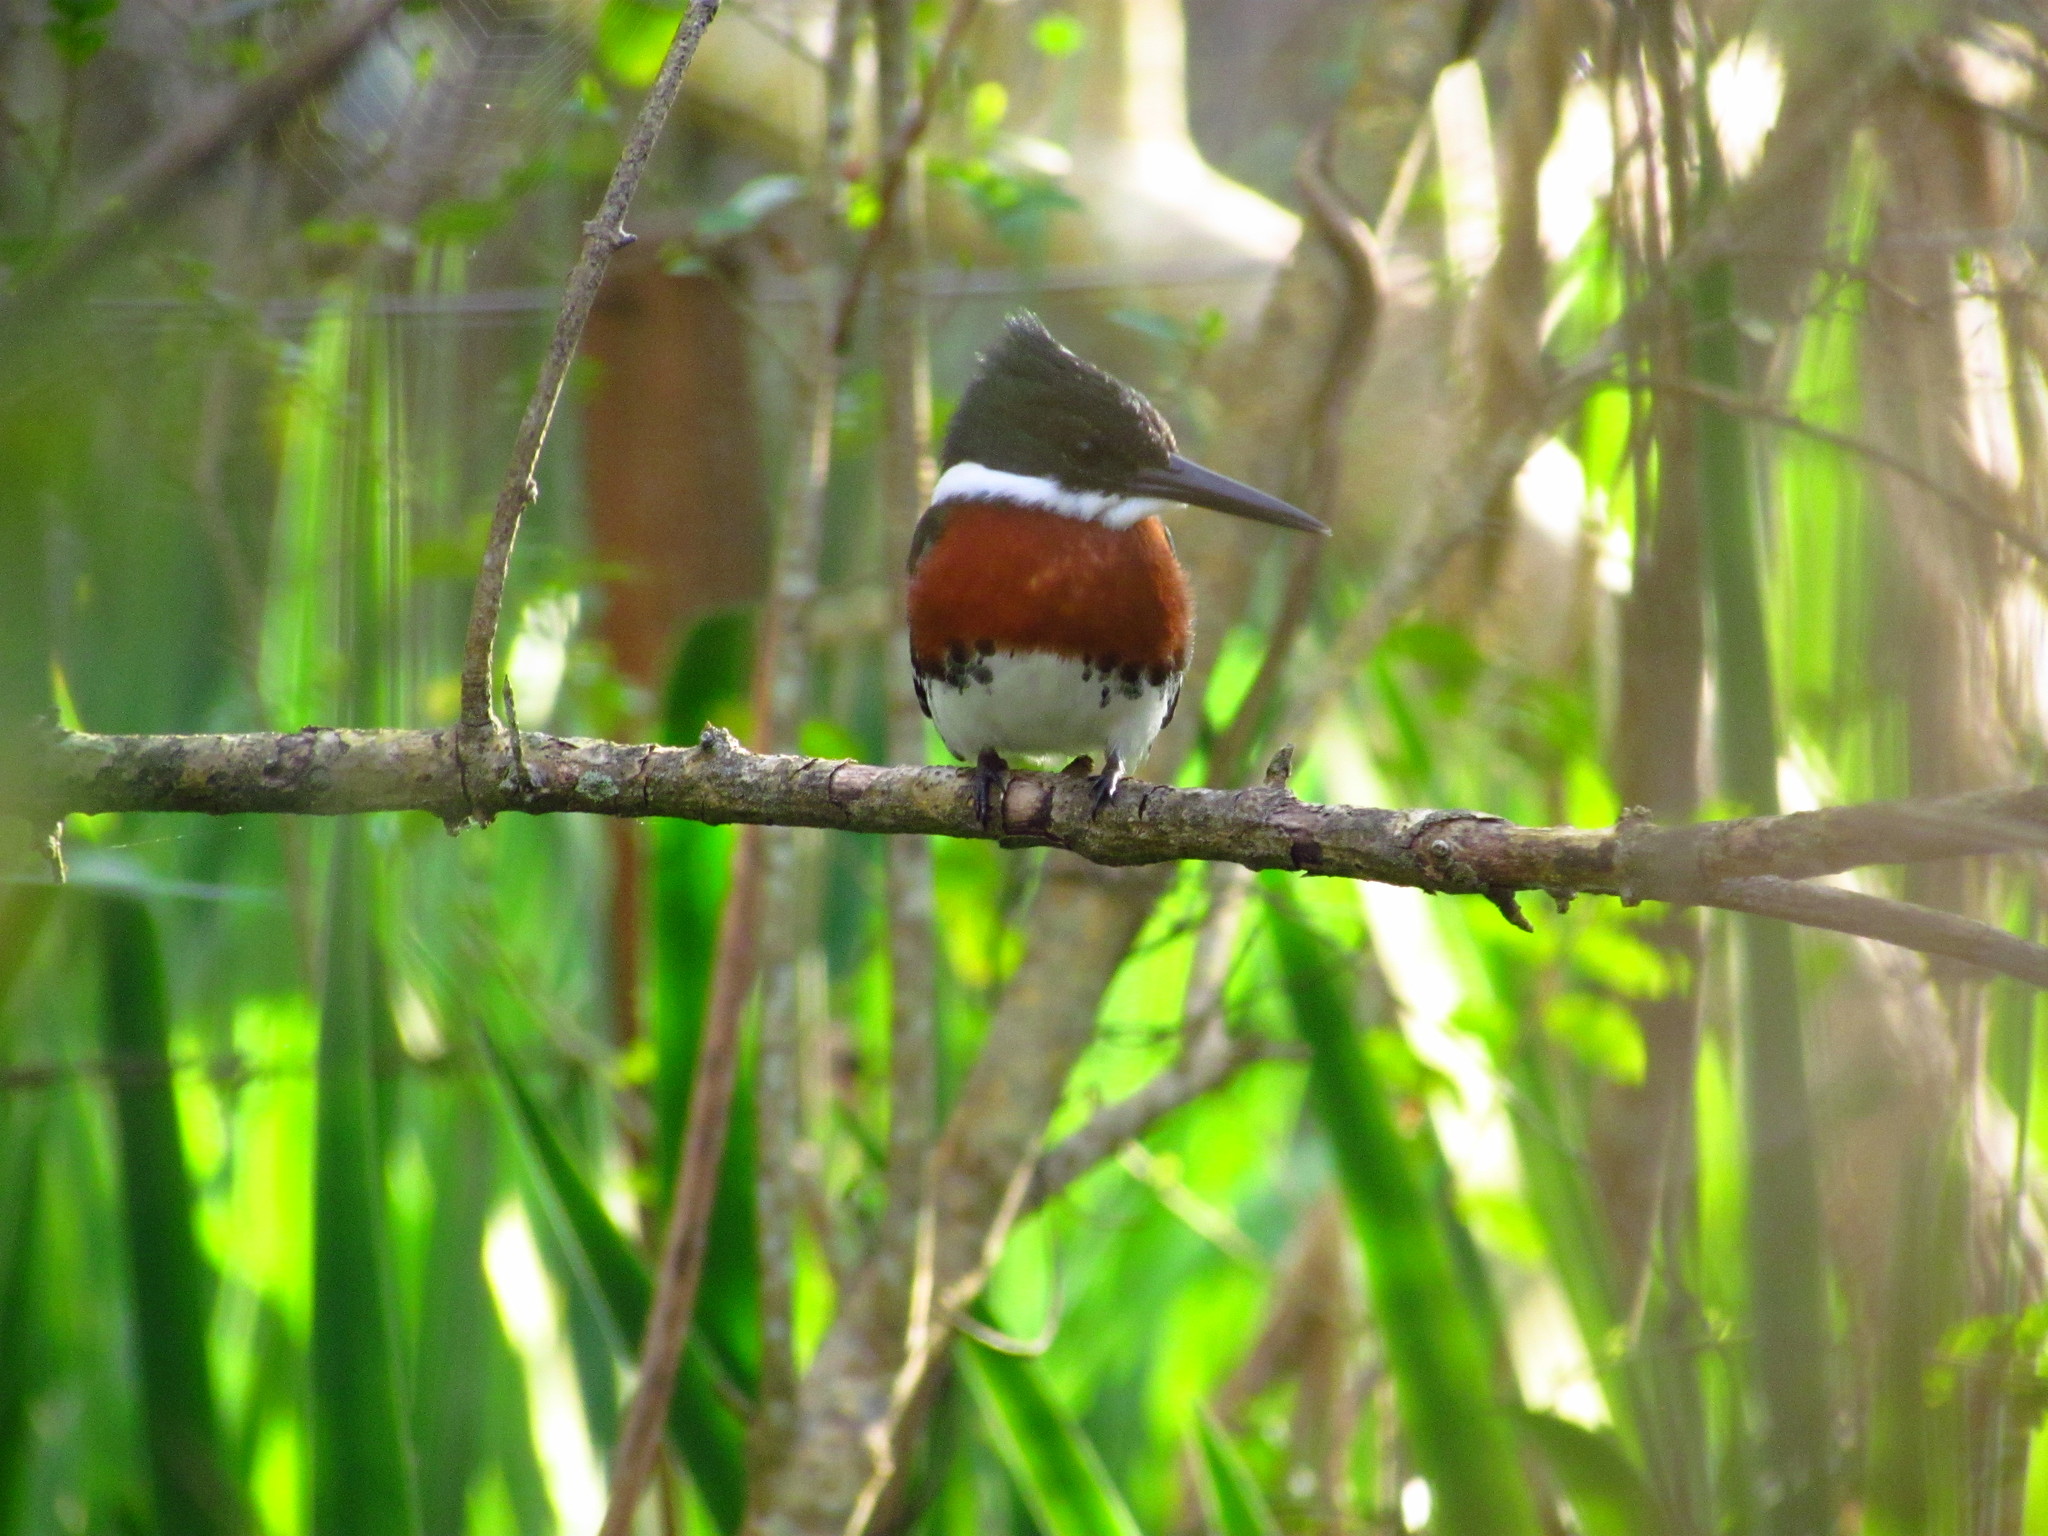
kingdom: Animalia
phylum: Chordata
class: Aves
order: Coraciiformes
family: Alcedinidae
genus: Chloroceryle
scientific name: Chloroceryle americana
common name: Green kingfisher
